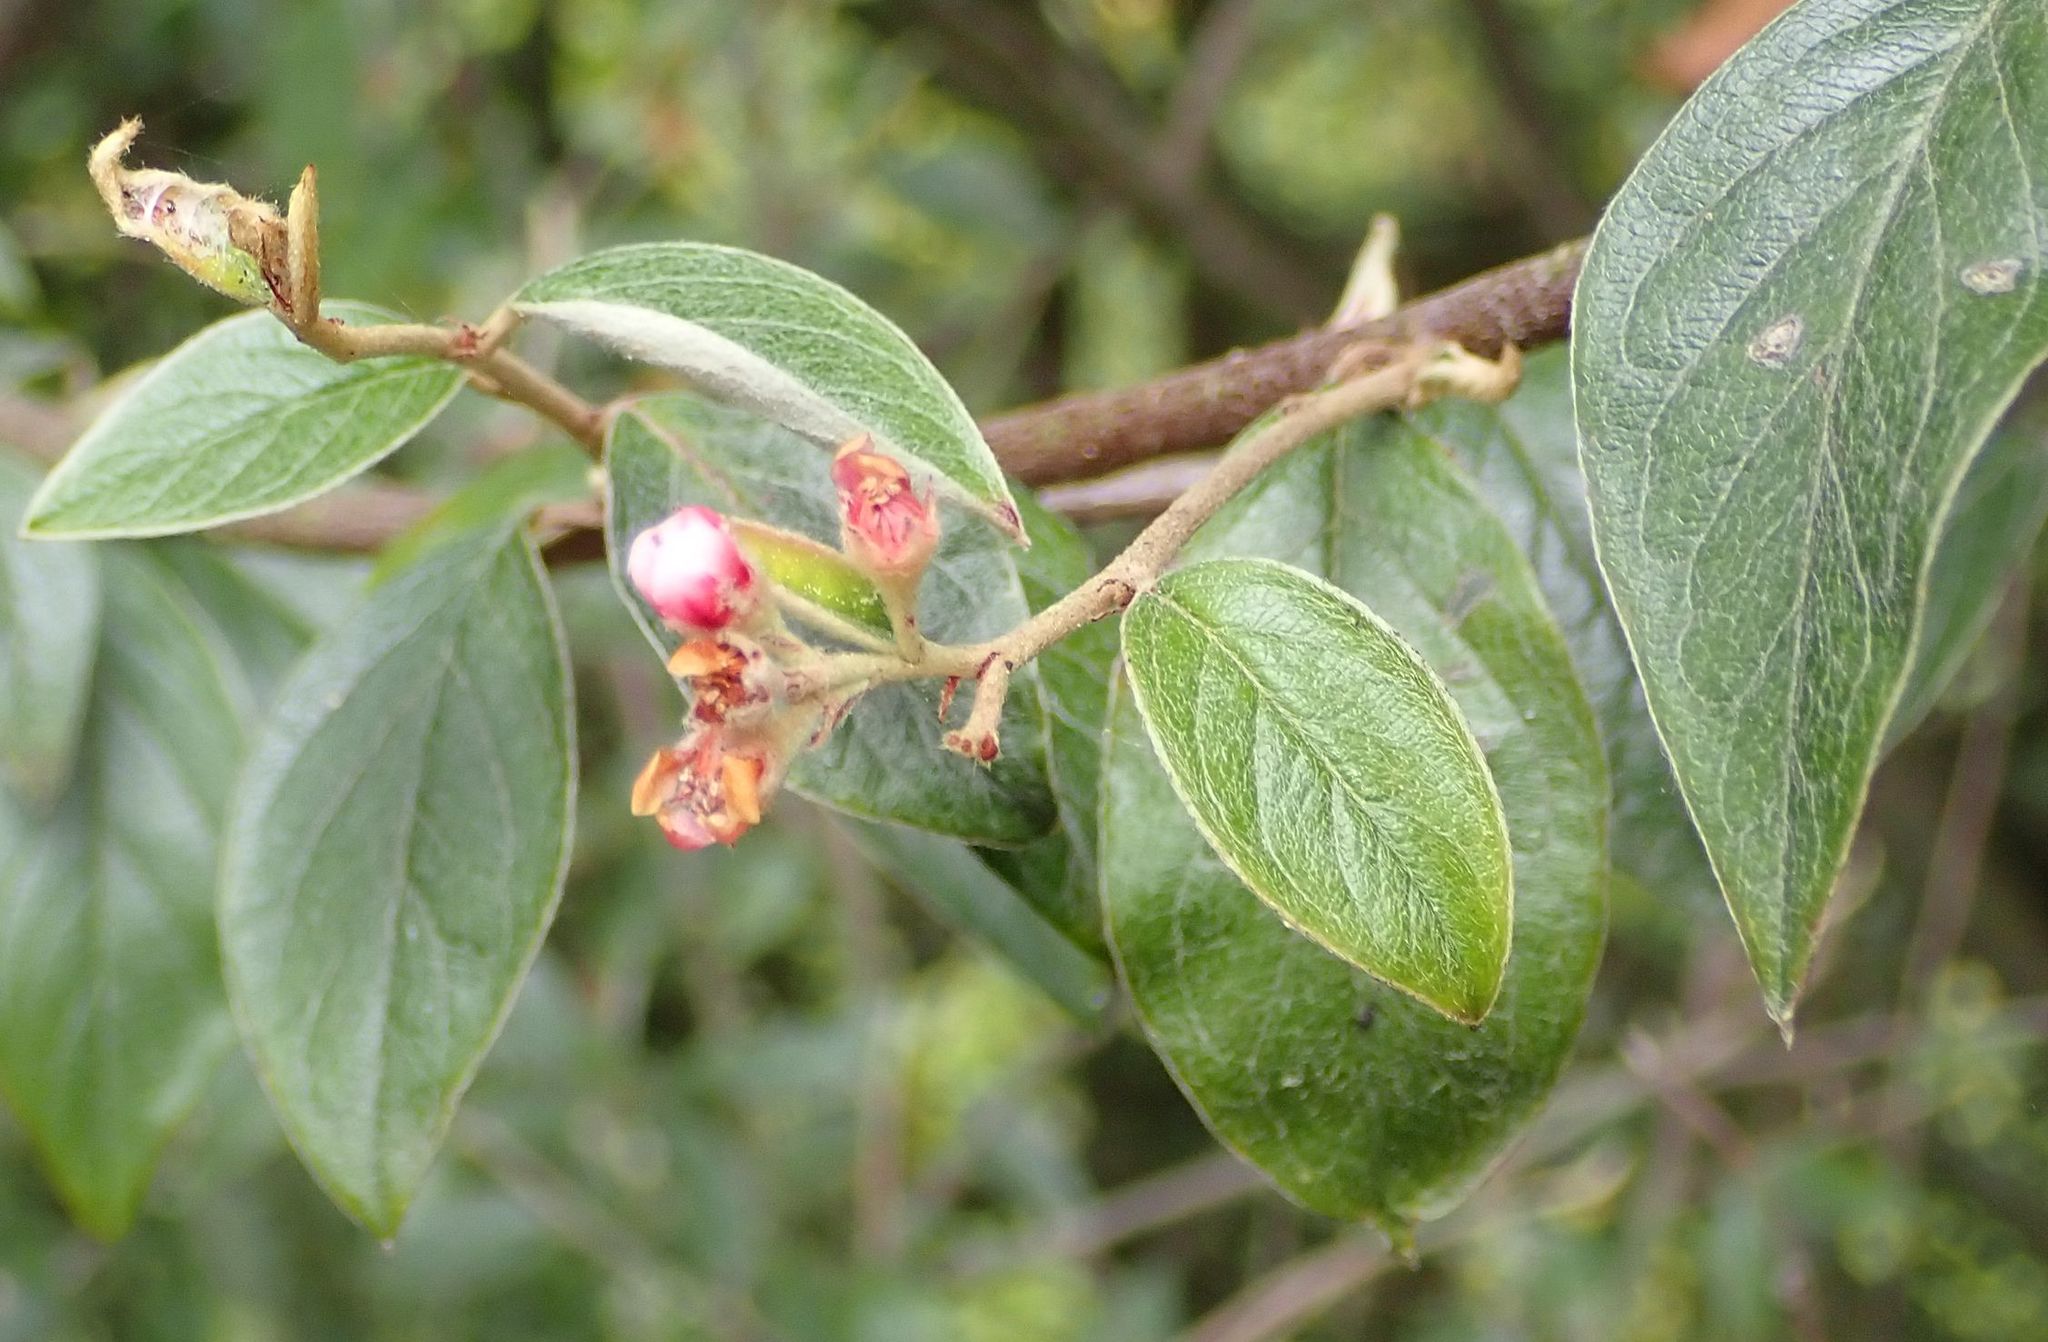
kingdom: Plantae
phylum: Tracheophyta
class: Magnoliopsida
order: Rosales
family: Rosaceae
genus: Cotoneaster
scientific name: Cotoneaster franchetii
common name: Franchet's cotoneaster
